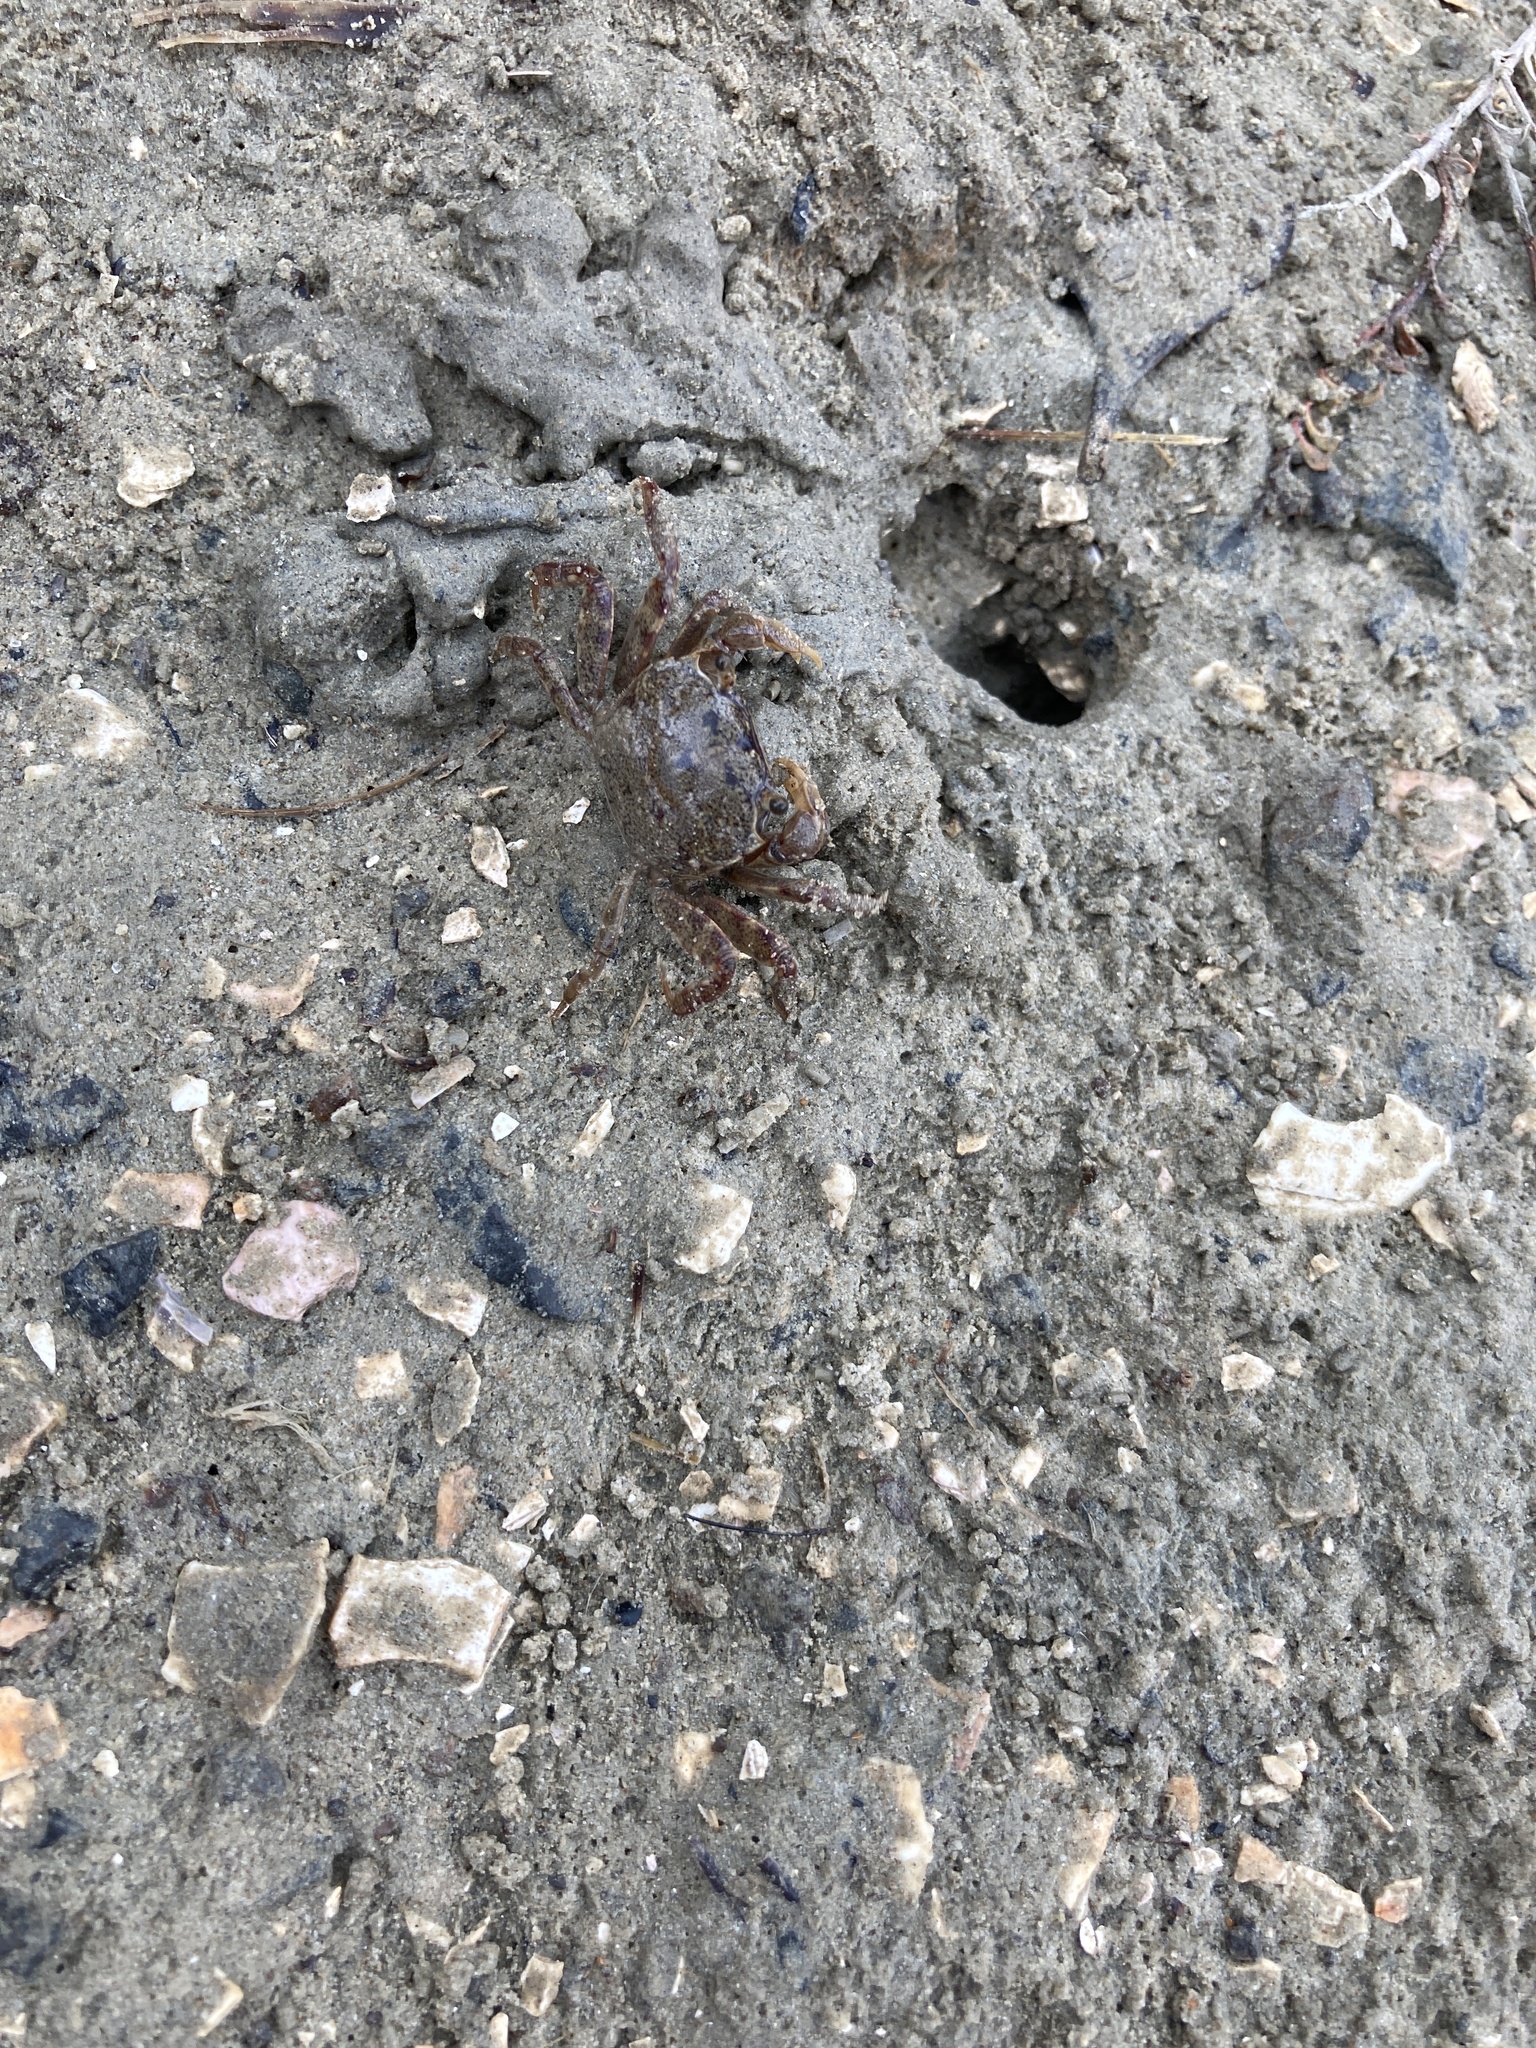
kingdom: Animalia
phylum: Arthropoda
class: Malacostraca
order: Decapoda
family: Varunidae
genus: Austrohelice
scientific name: Austrohelice crassa
